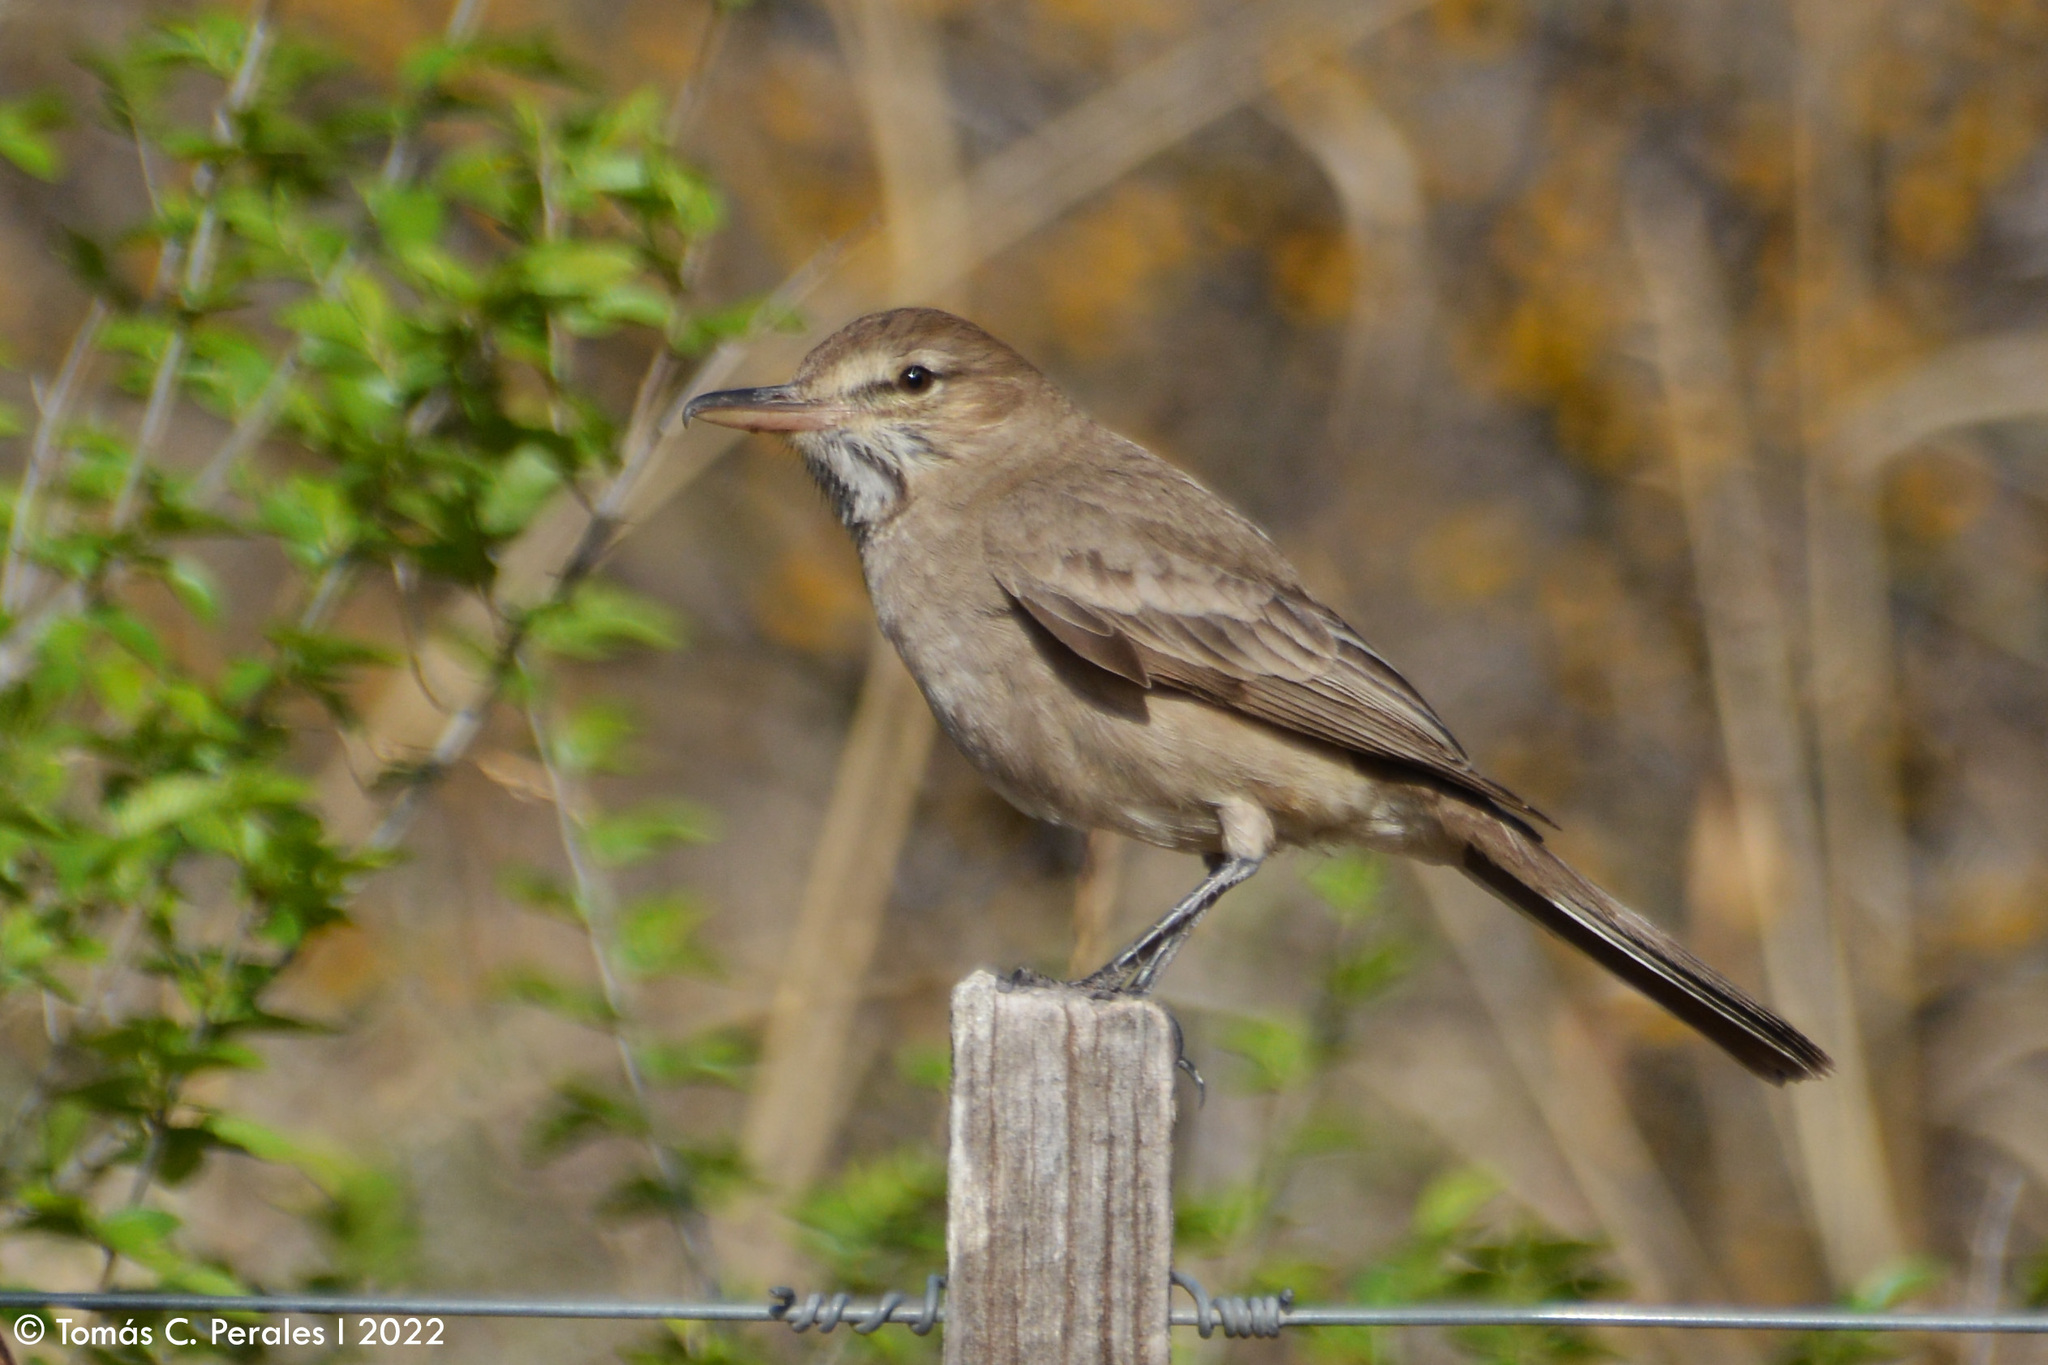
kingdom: Animalia
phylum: Chordata
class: Aves
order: Passeriformes
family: Tyrannidae
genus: Agriornis
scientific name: Agriornis micropterus
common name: Grey-bellied shrike-tyrant
